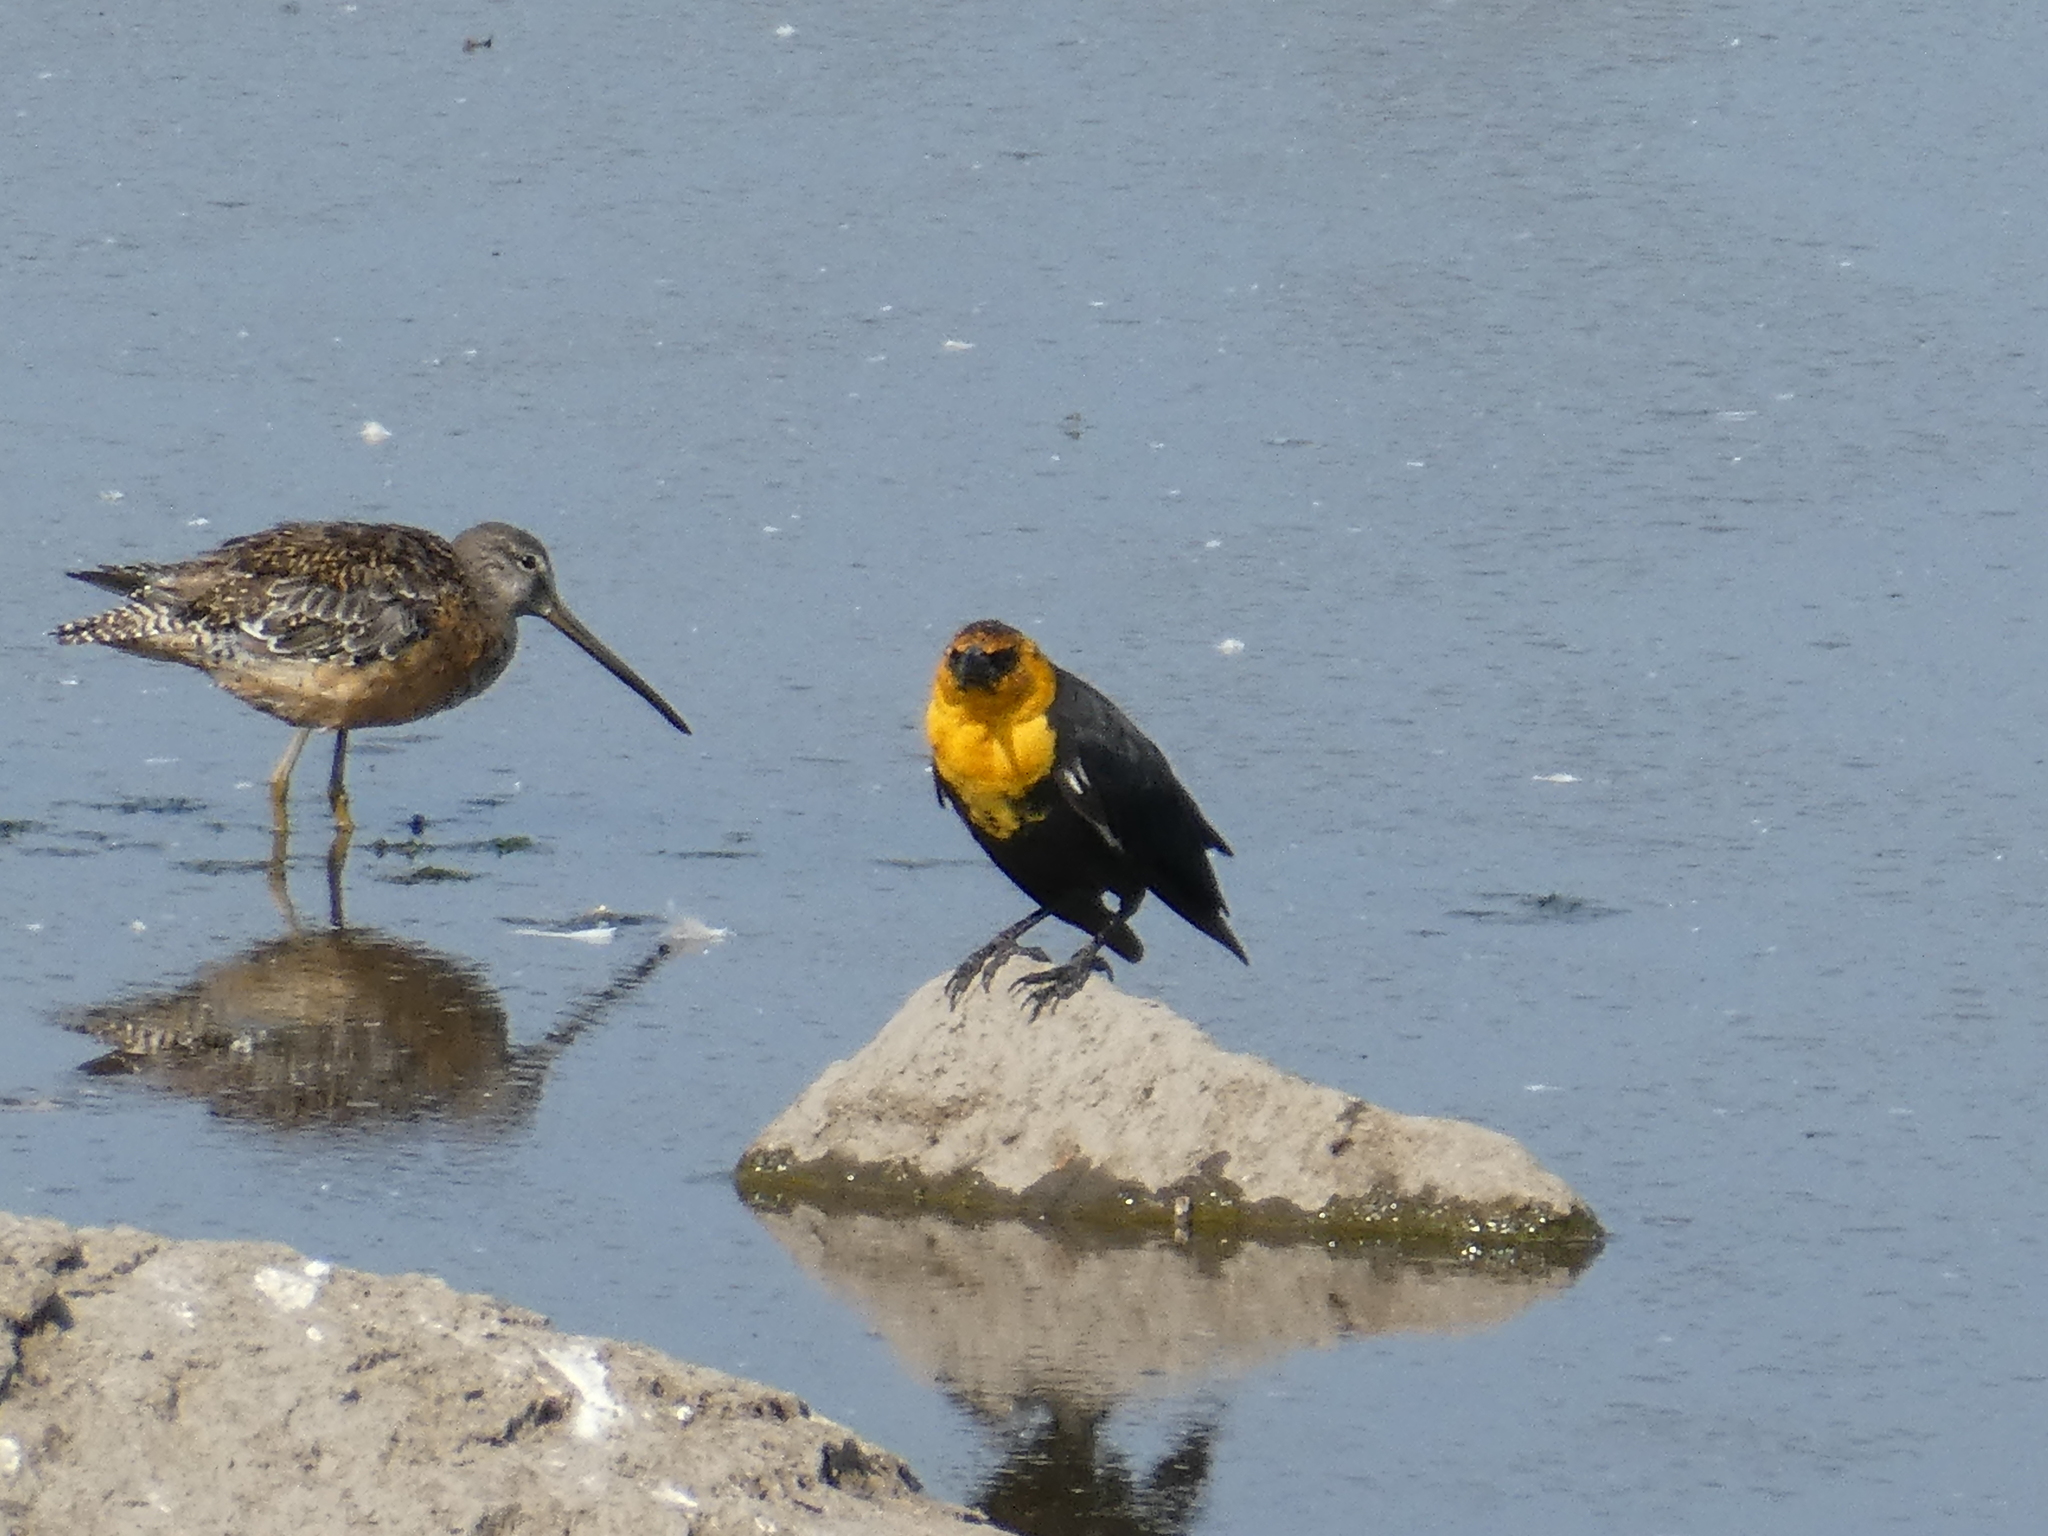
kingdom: Animalia
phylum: Chordata
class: Aves
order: Charadriiformes
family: Scolopacidae
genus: Limnodromus
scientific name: Limnodromus scolopaceus
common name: Long-billed dowitcher
